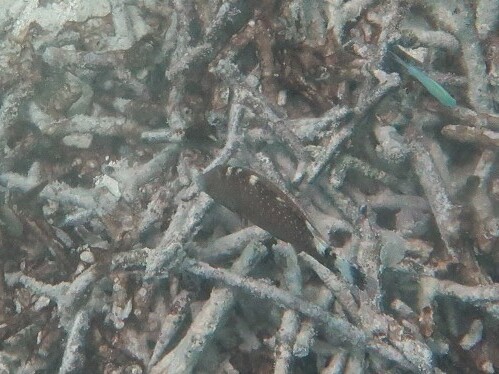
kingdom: Animalia
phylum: Chordata
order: Perciformes
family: Labridae
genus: Cheilinus
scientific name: Cheilinus chlorourus
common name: Floral wrasse
